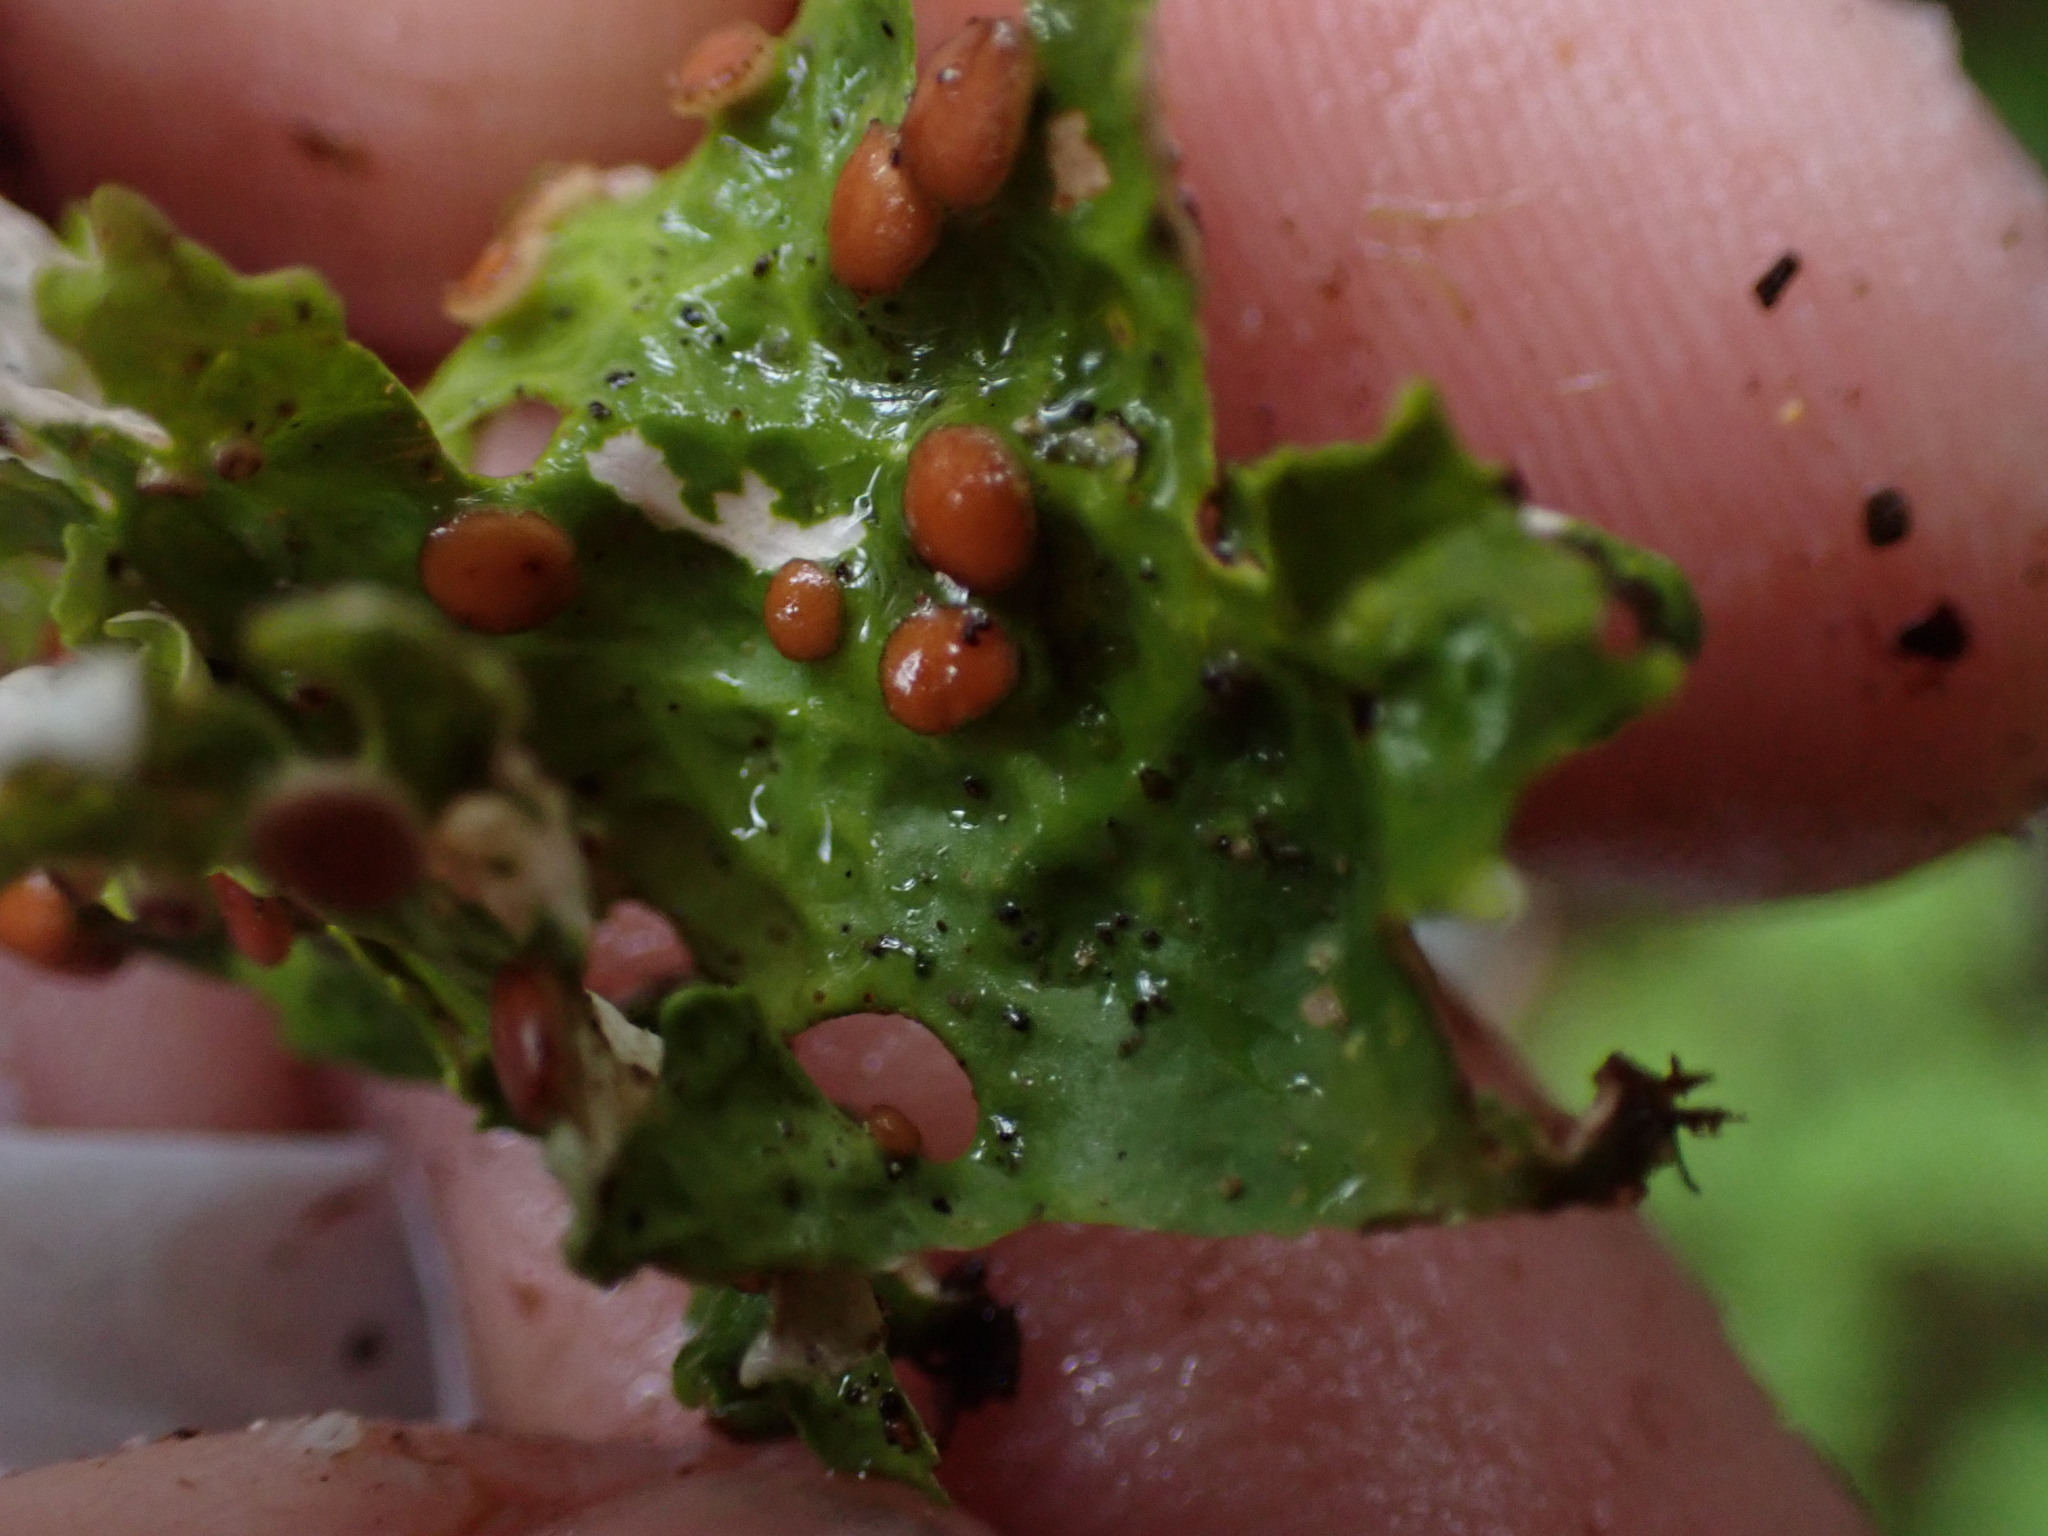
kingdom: Fungi
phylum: Ascomycota
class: Lecanoromycetes
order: Peltigerales
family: Lobariaceae
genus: Lobaria
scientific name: Lobaria linita
